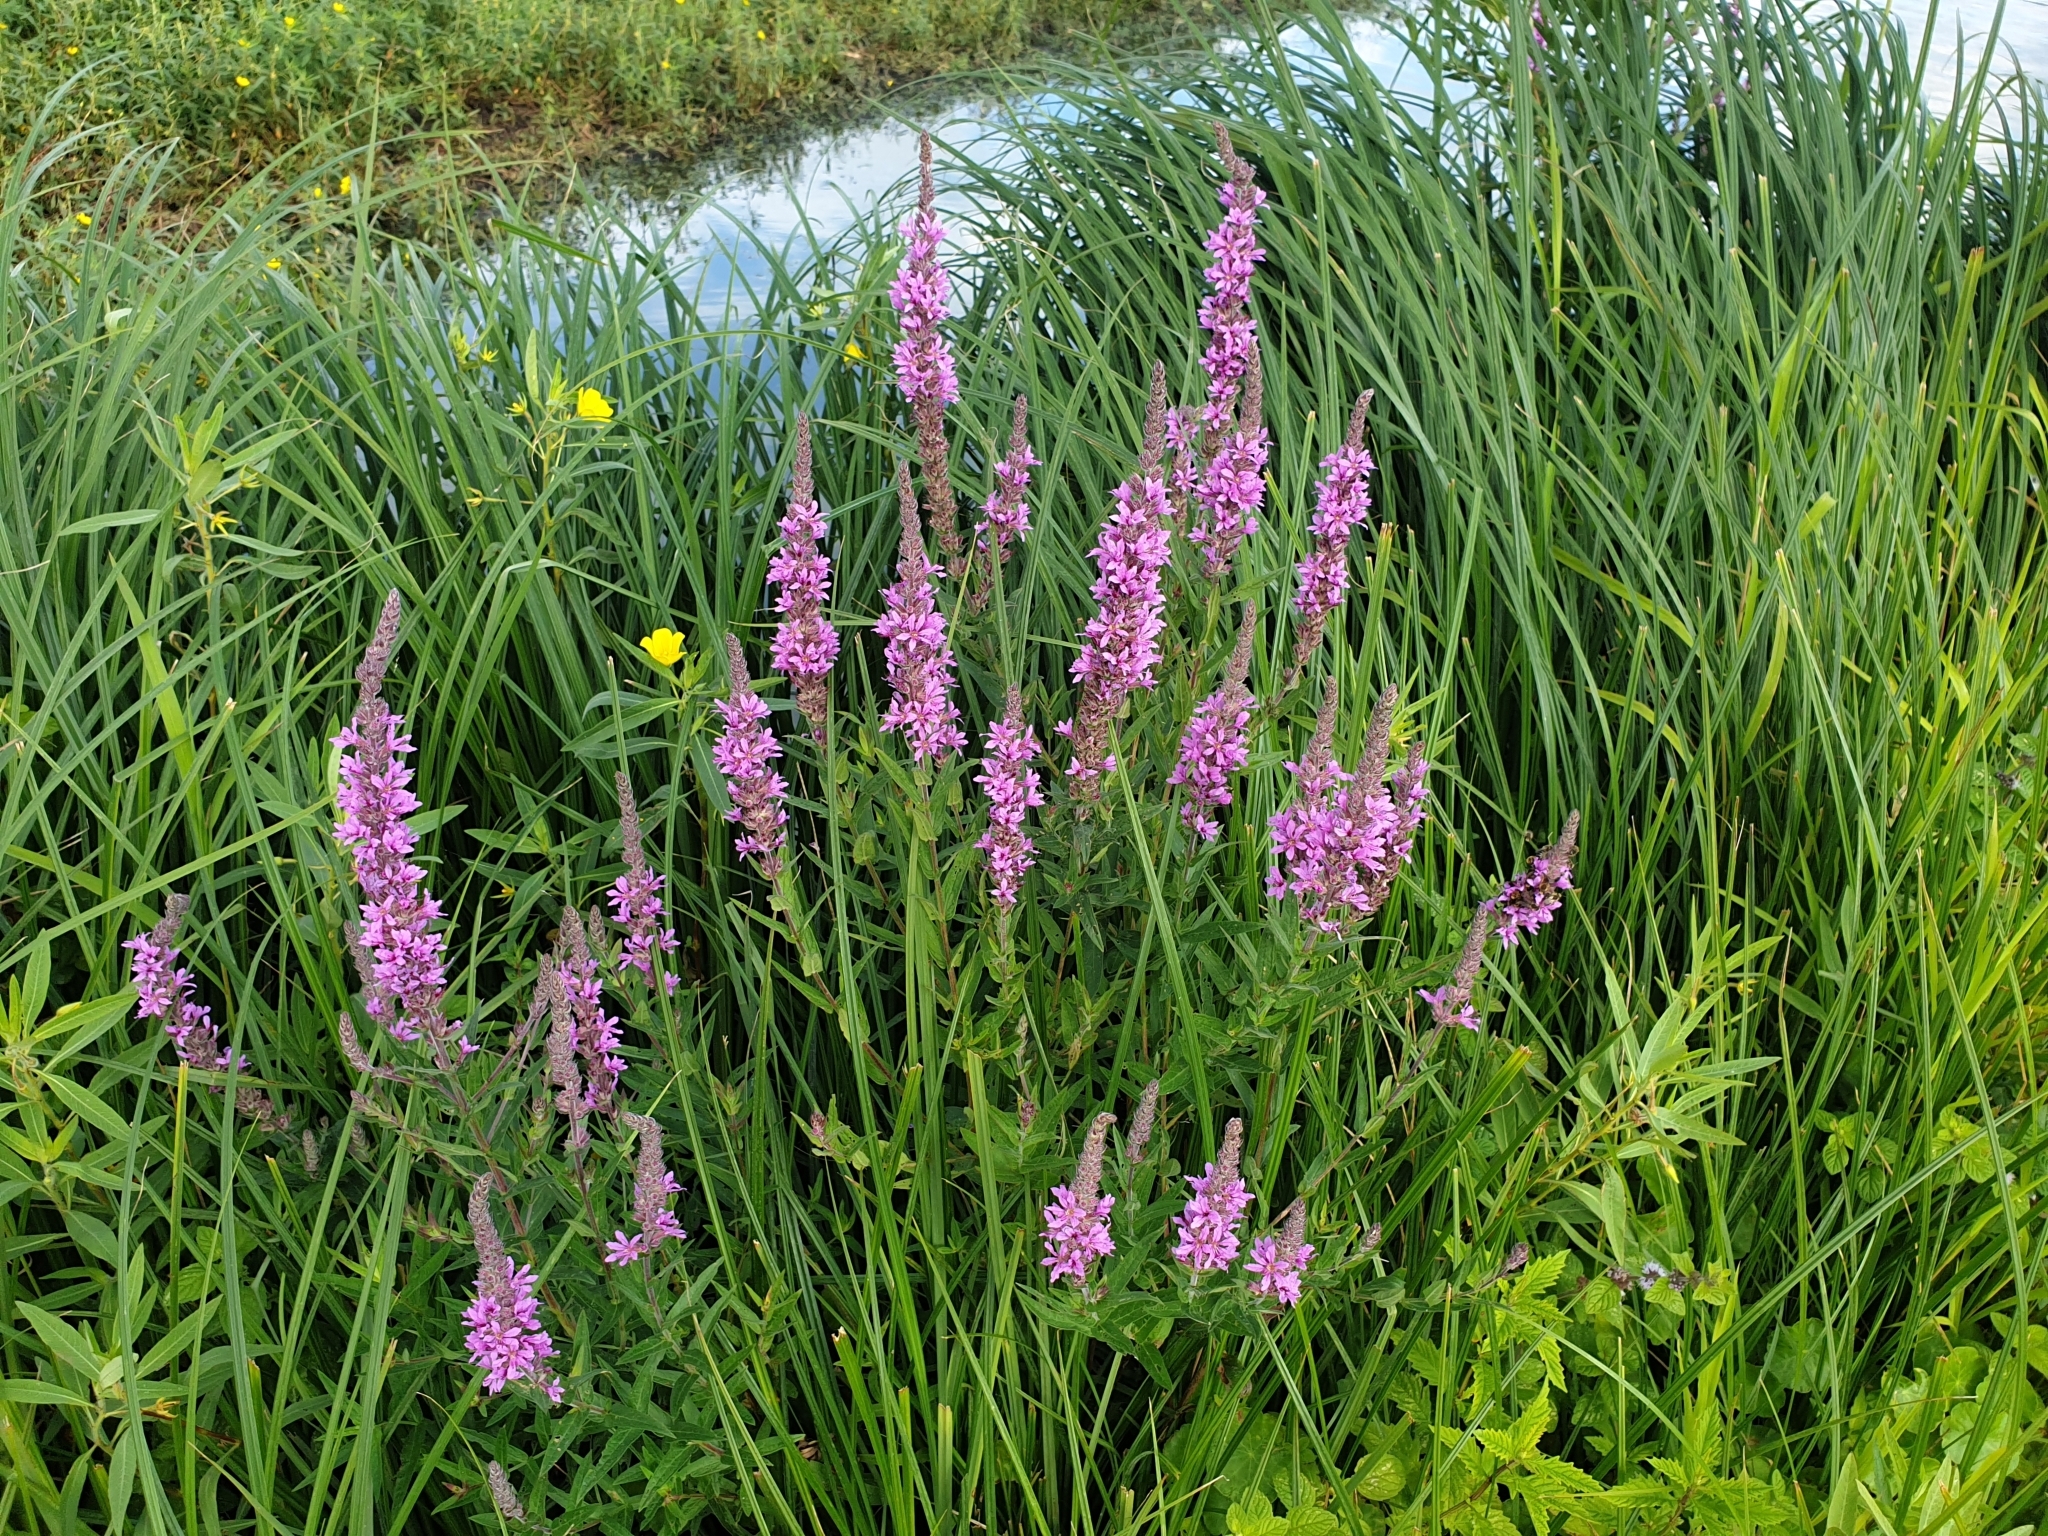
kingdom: Plantae
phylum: Tracheophyta
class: Magnoliopsida
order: Myrtales
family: Lythraceae
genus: Lythrum
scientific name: Lythrum salicaria
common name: Purple loosestrife
